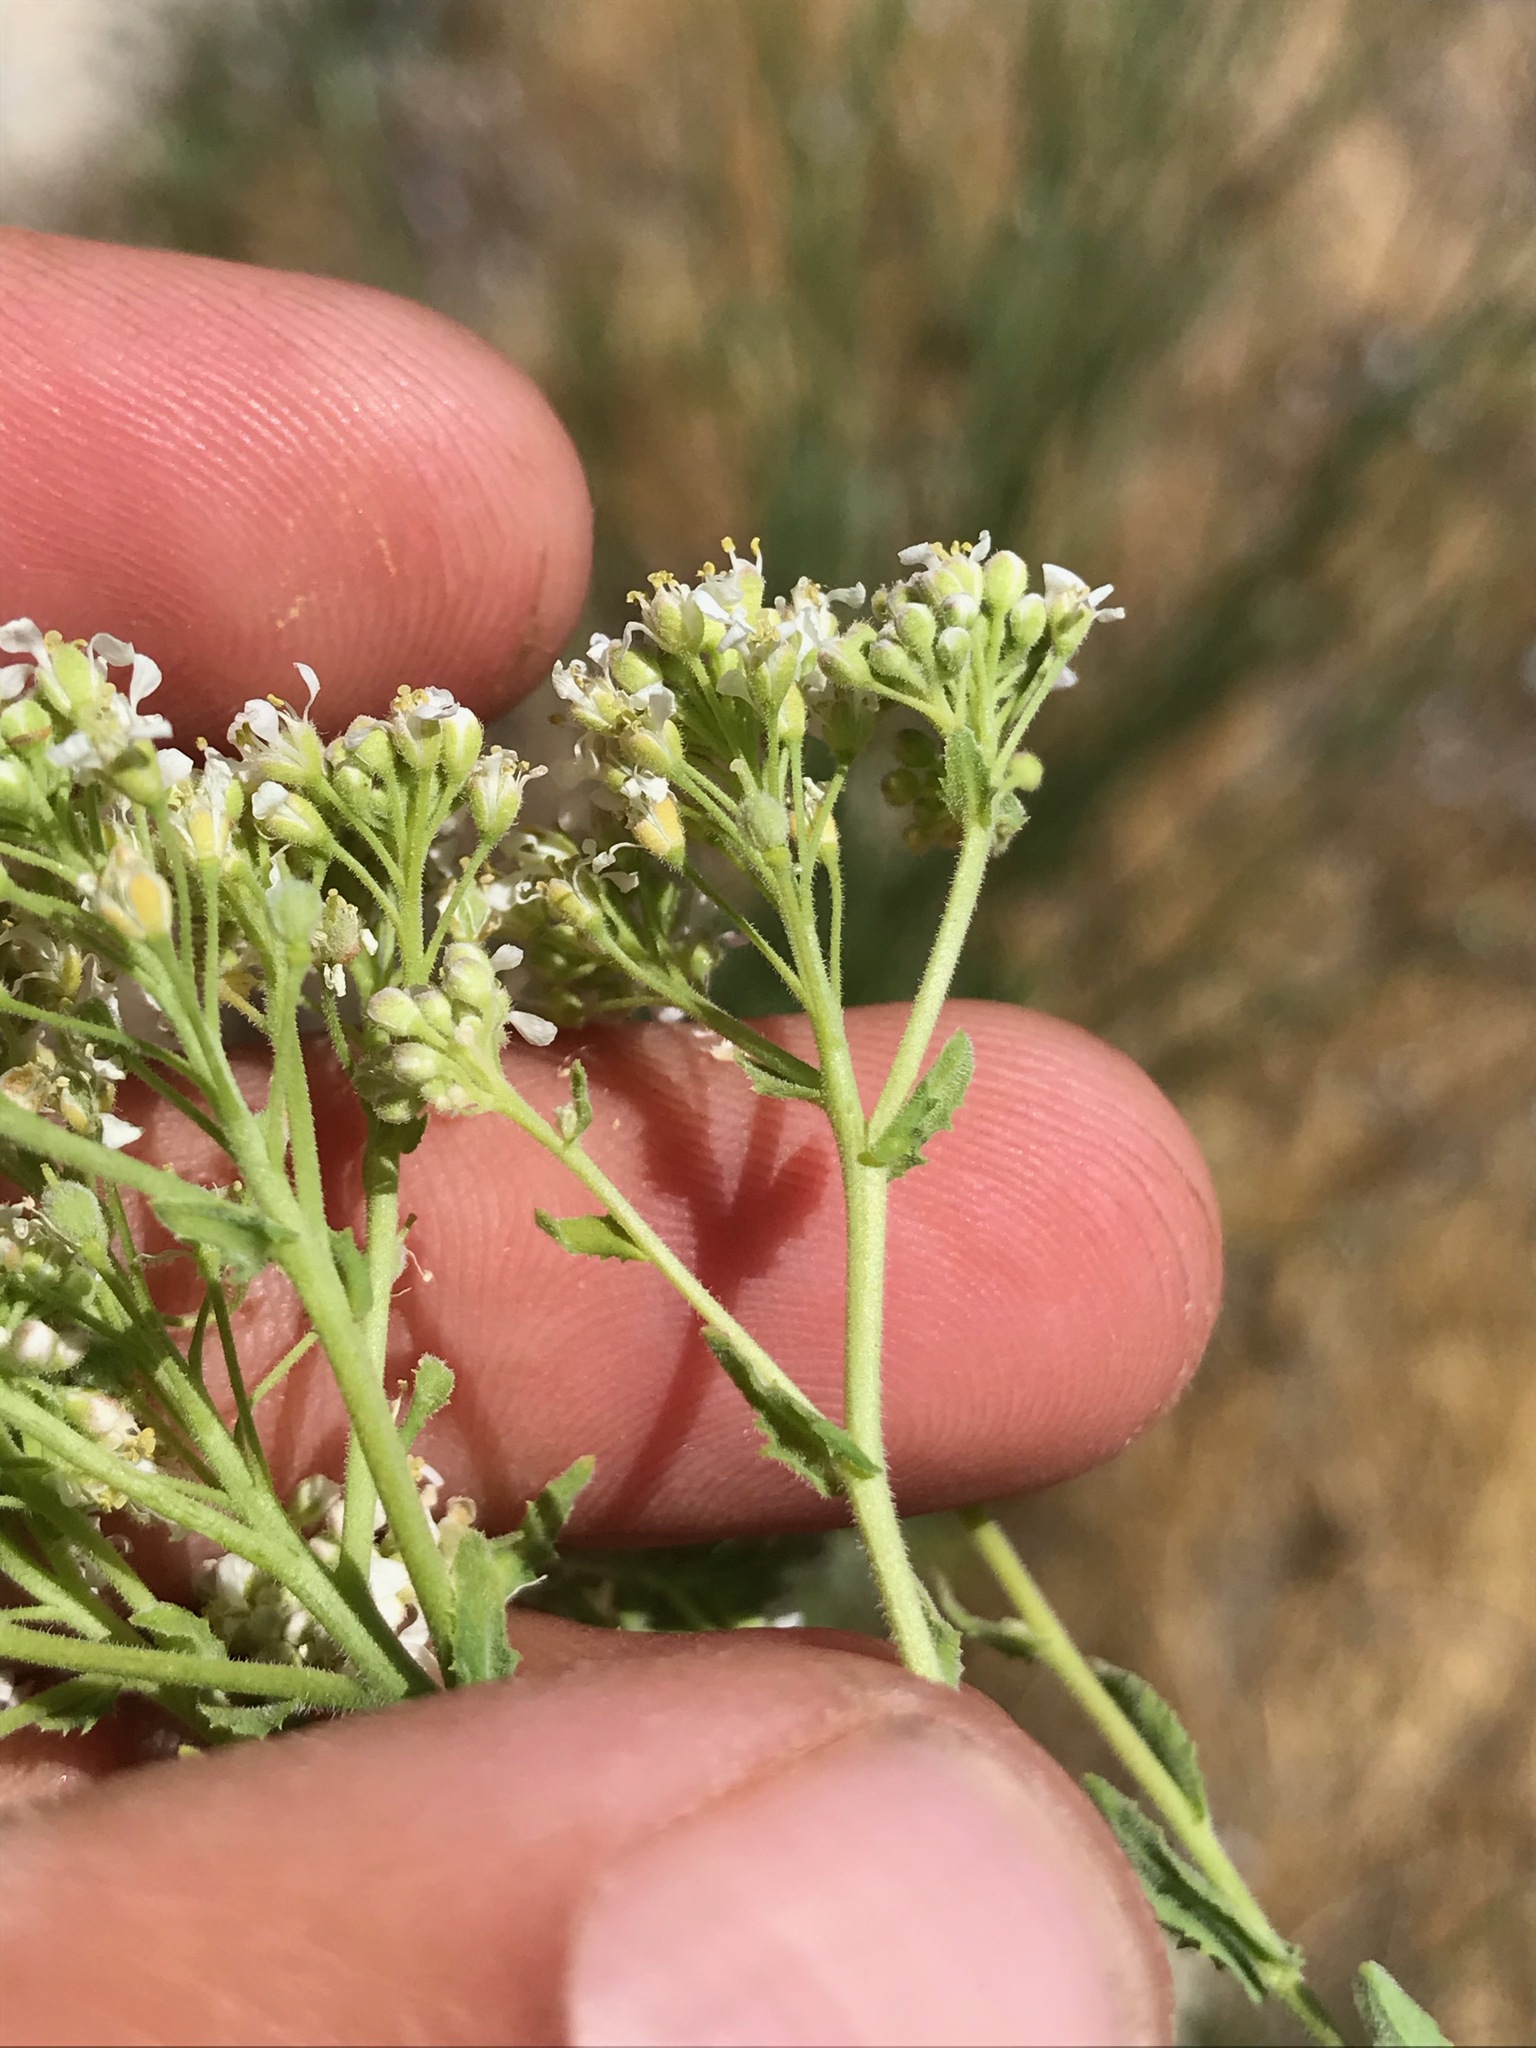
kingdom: Plantae
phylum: Tracheophyta
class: Magnoliopsida
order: Brassicales
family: Brassicaceae
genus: Lepidium
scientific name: Lepidium appelianum
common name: Hairy whitetop
